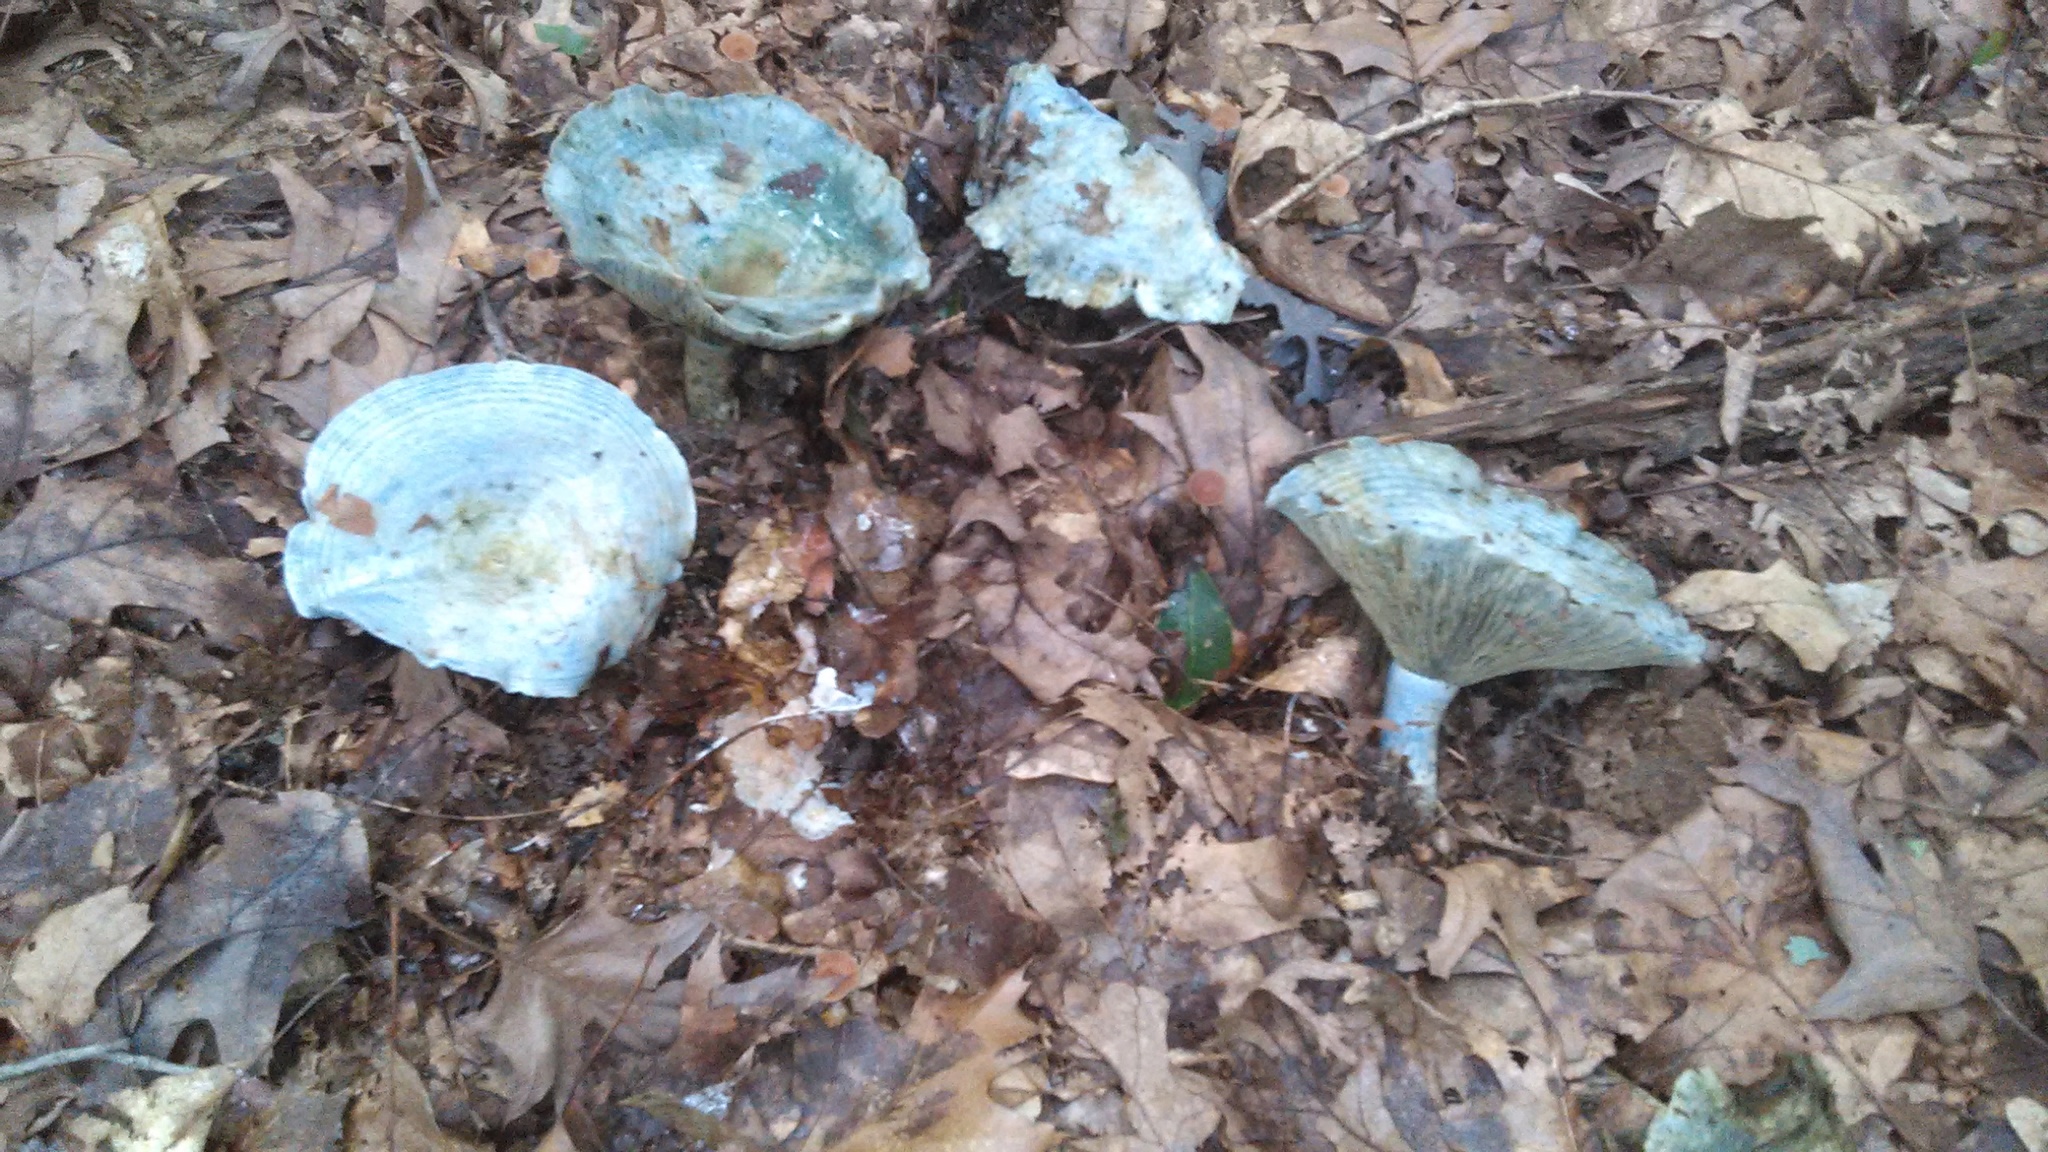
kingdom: Fungi
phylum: Basidiomycota
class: Agaricomycetes
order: Russulales
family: Russulaceae
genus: Lactarius
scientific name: Lactarius indigo
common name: Indigo milk cap
